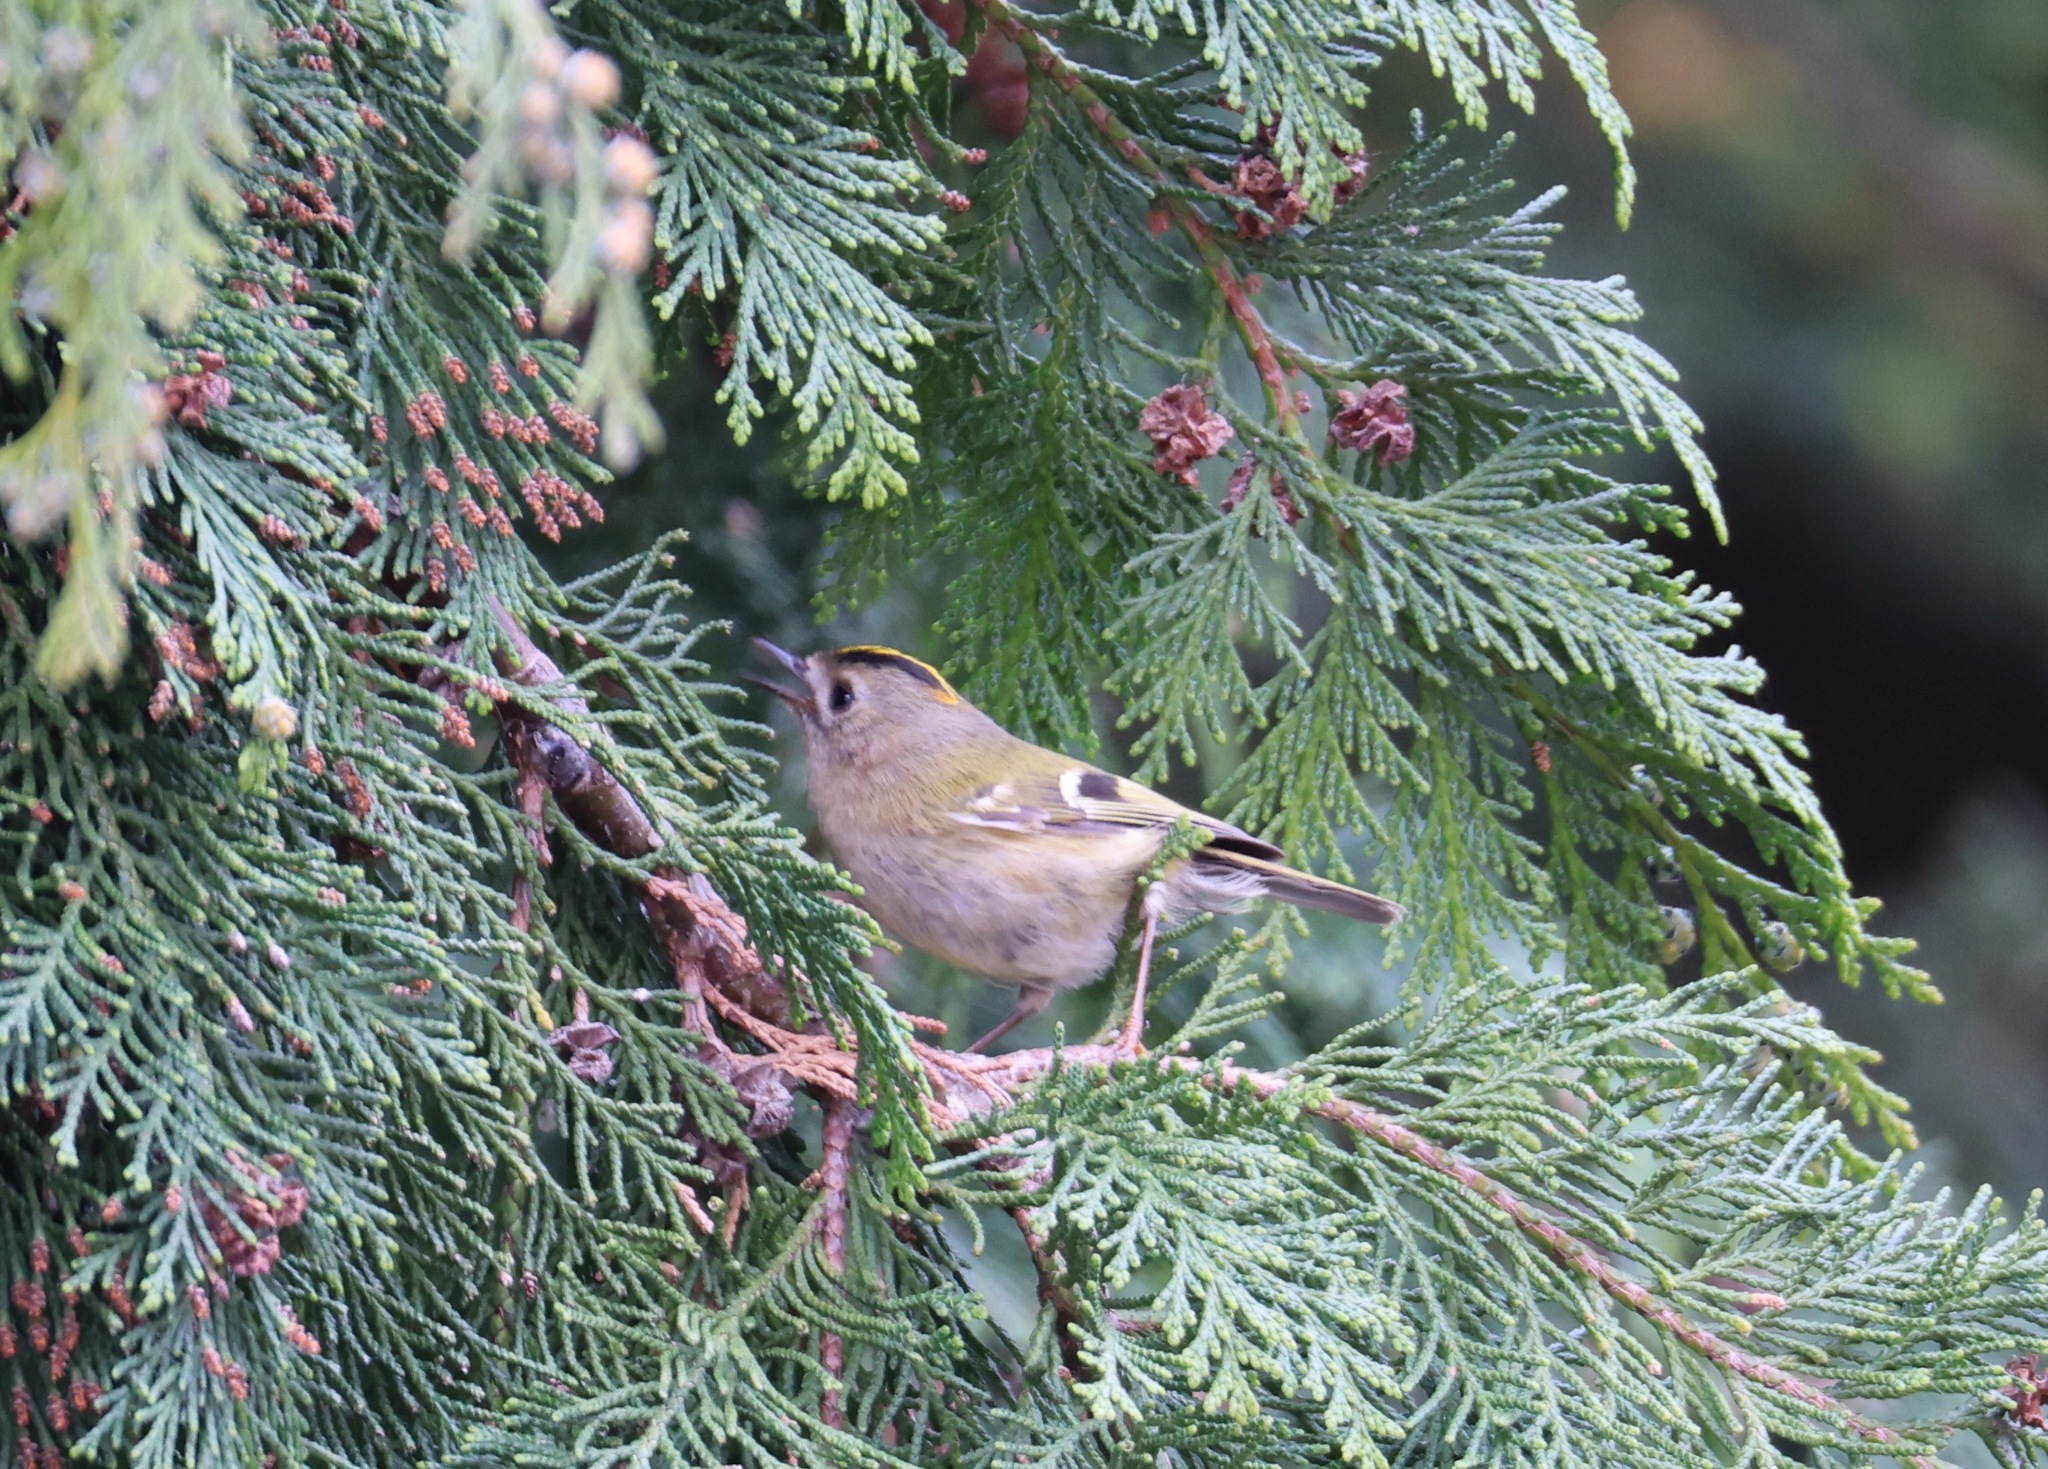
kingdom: Animalia
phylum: Chordata
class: Aves
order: Passeriformes
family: Regulidae
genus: Regulus
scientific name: Regulus regulus
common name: Goldcrest
